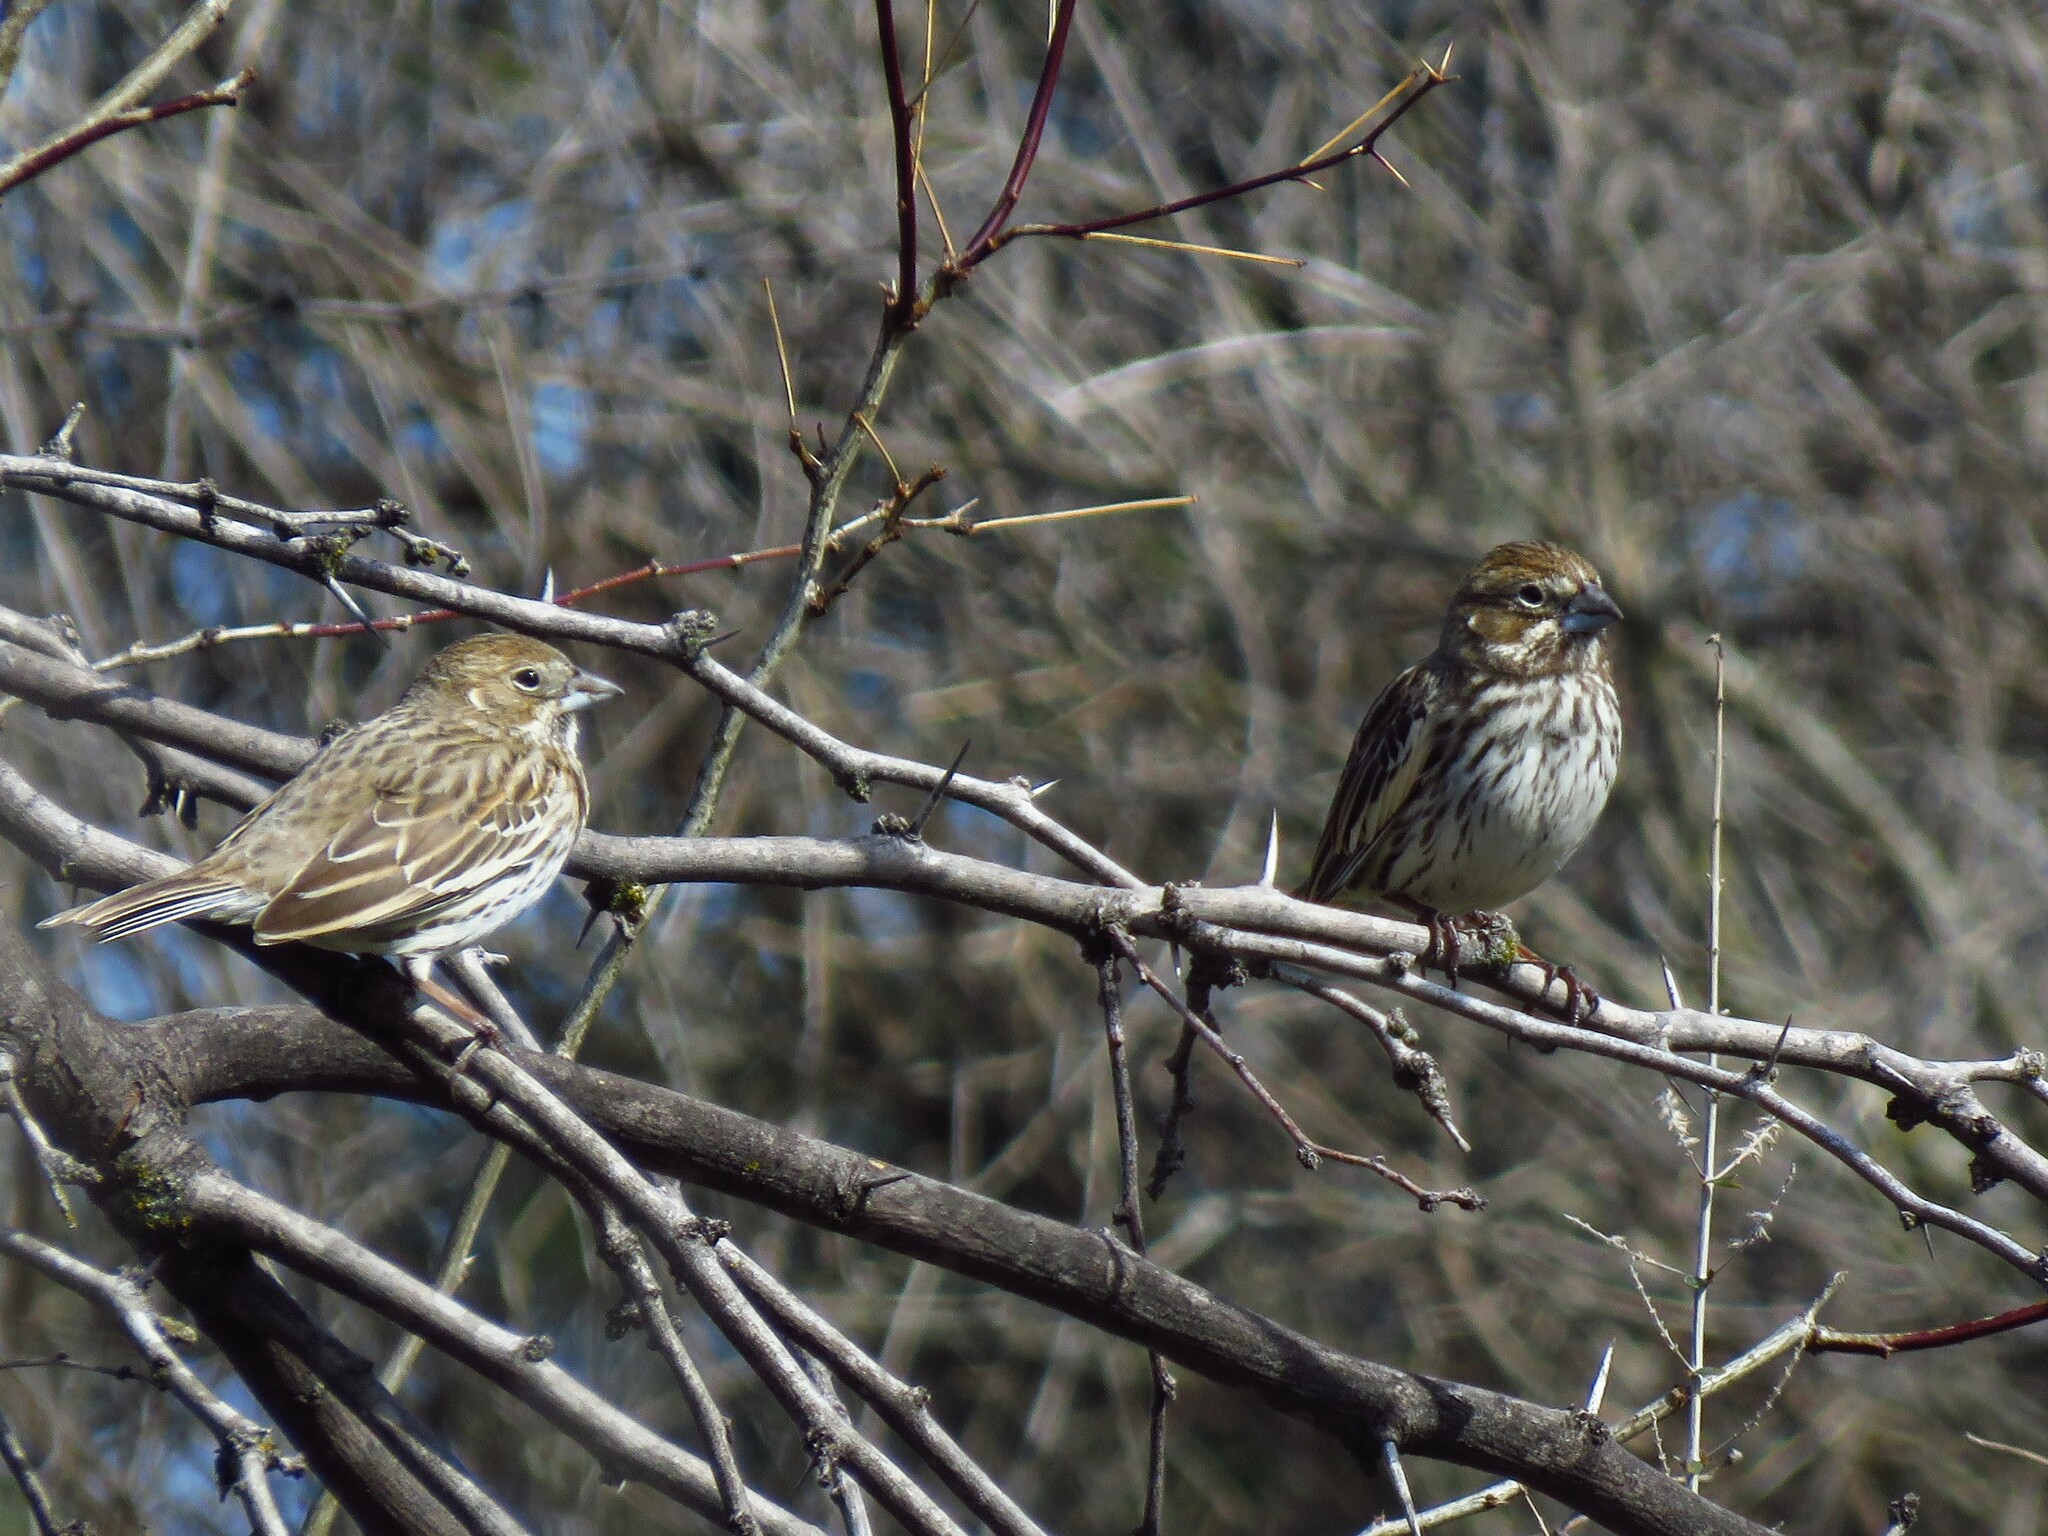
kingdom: Animalia
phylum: Chordata
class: Aves
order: Passeriformes
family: Passerellidae
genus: Calamospiza
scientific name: Calamospiza melanocorys
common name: Lark bunting
